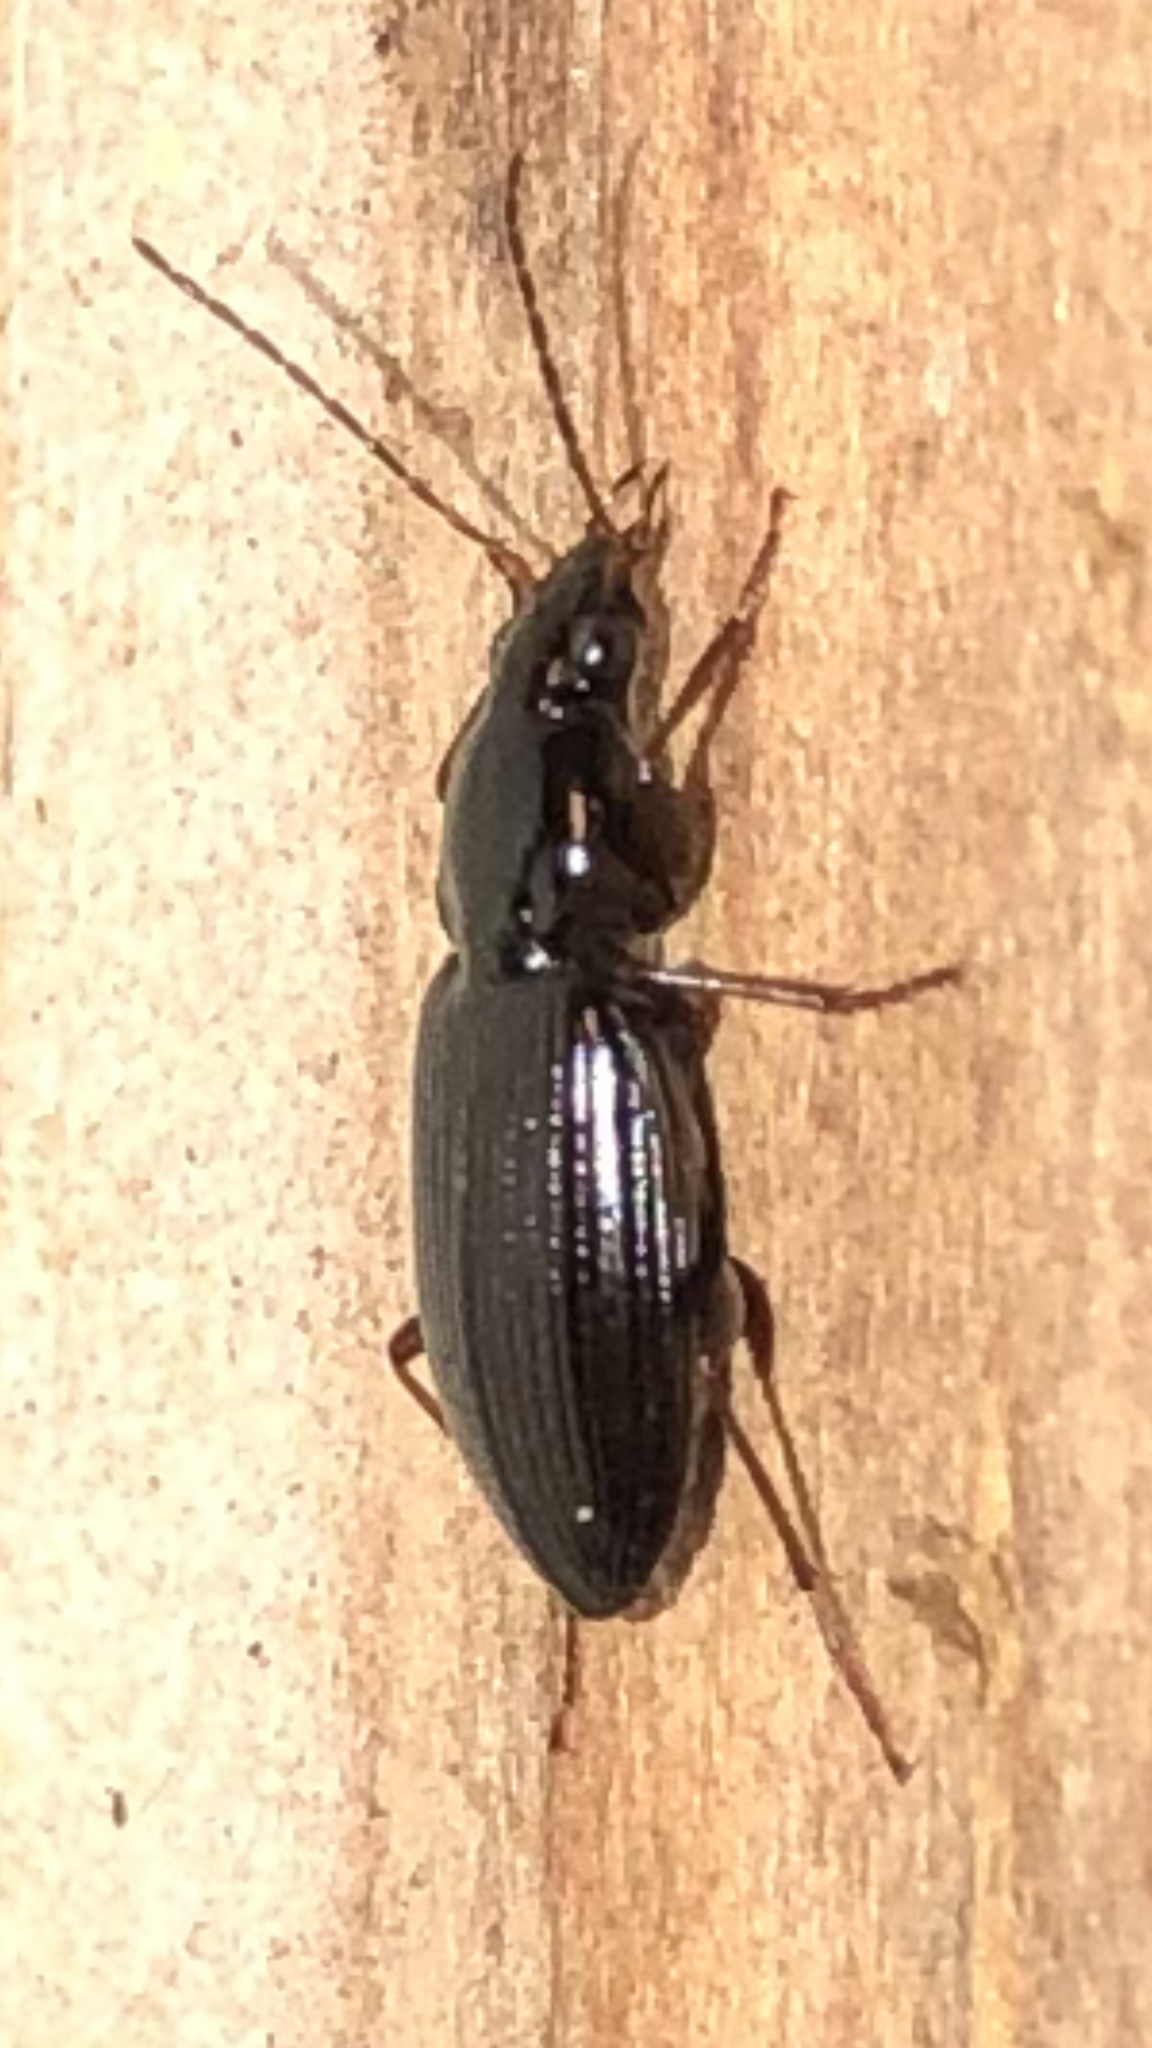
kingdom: Animalia
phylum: Arthropoda
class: Insecta
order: Coleoptera
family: Carabidae
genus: Agonum
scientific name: Agonum punctiforme
